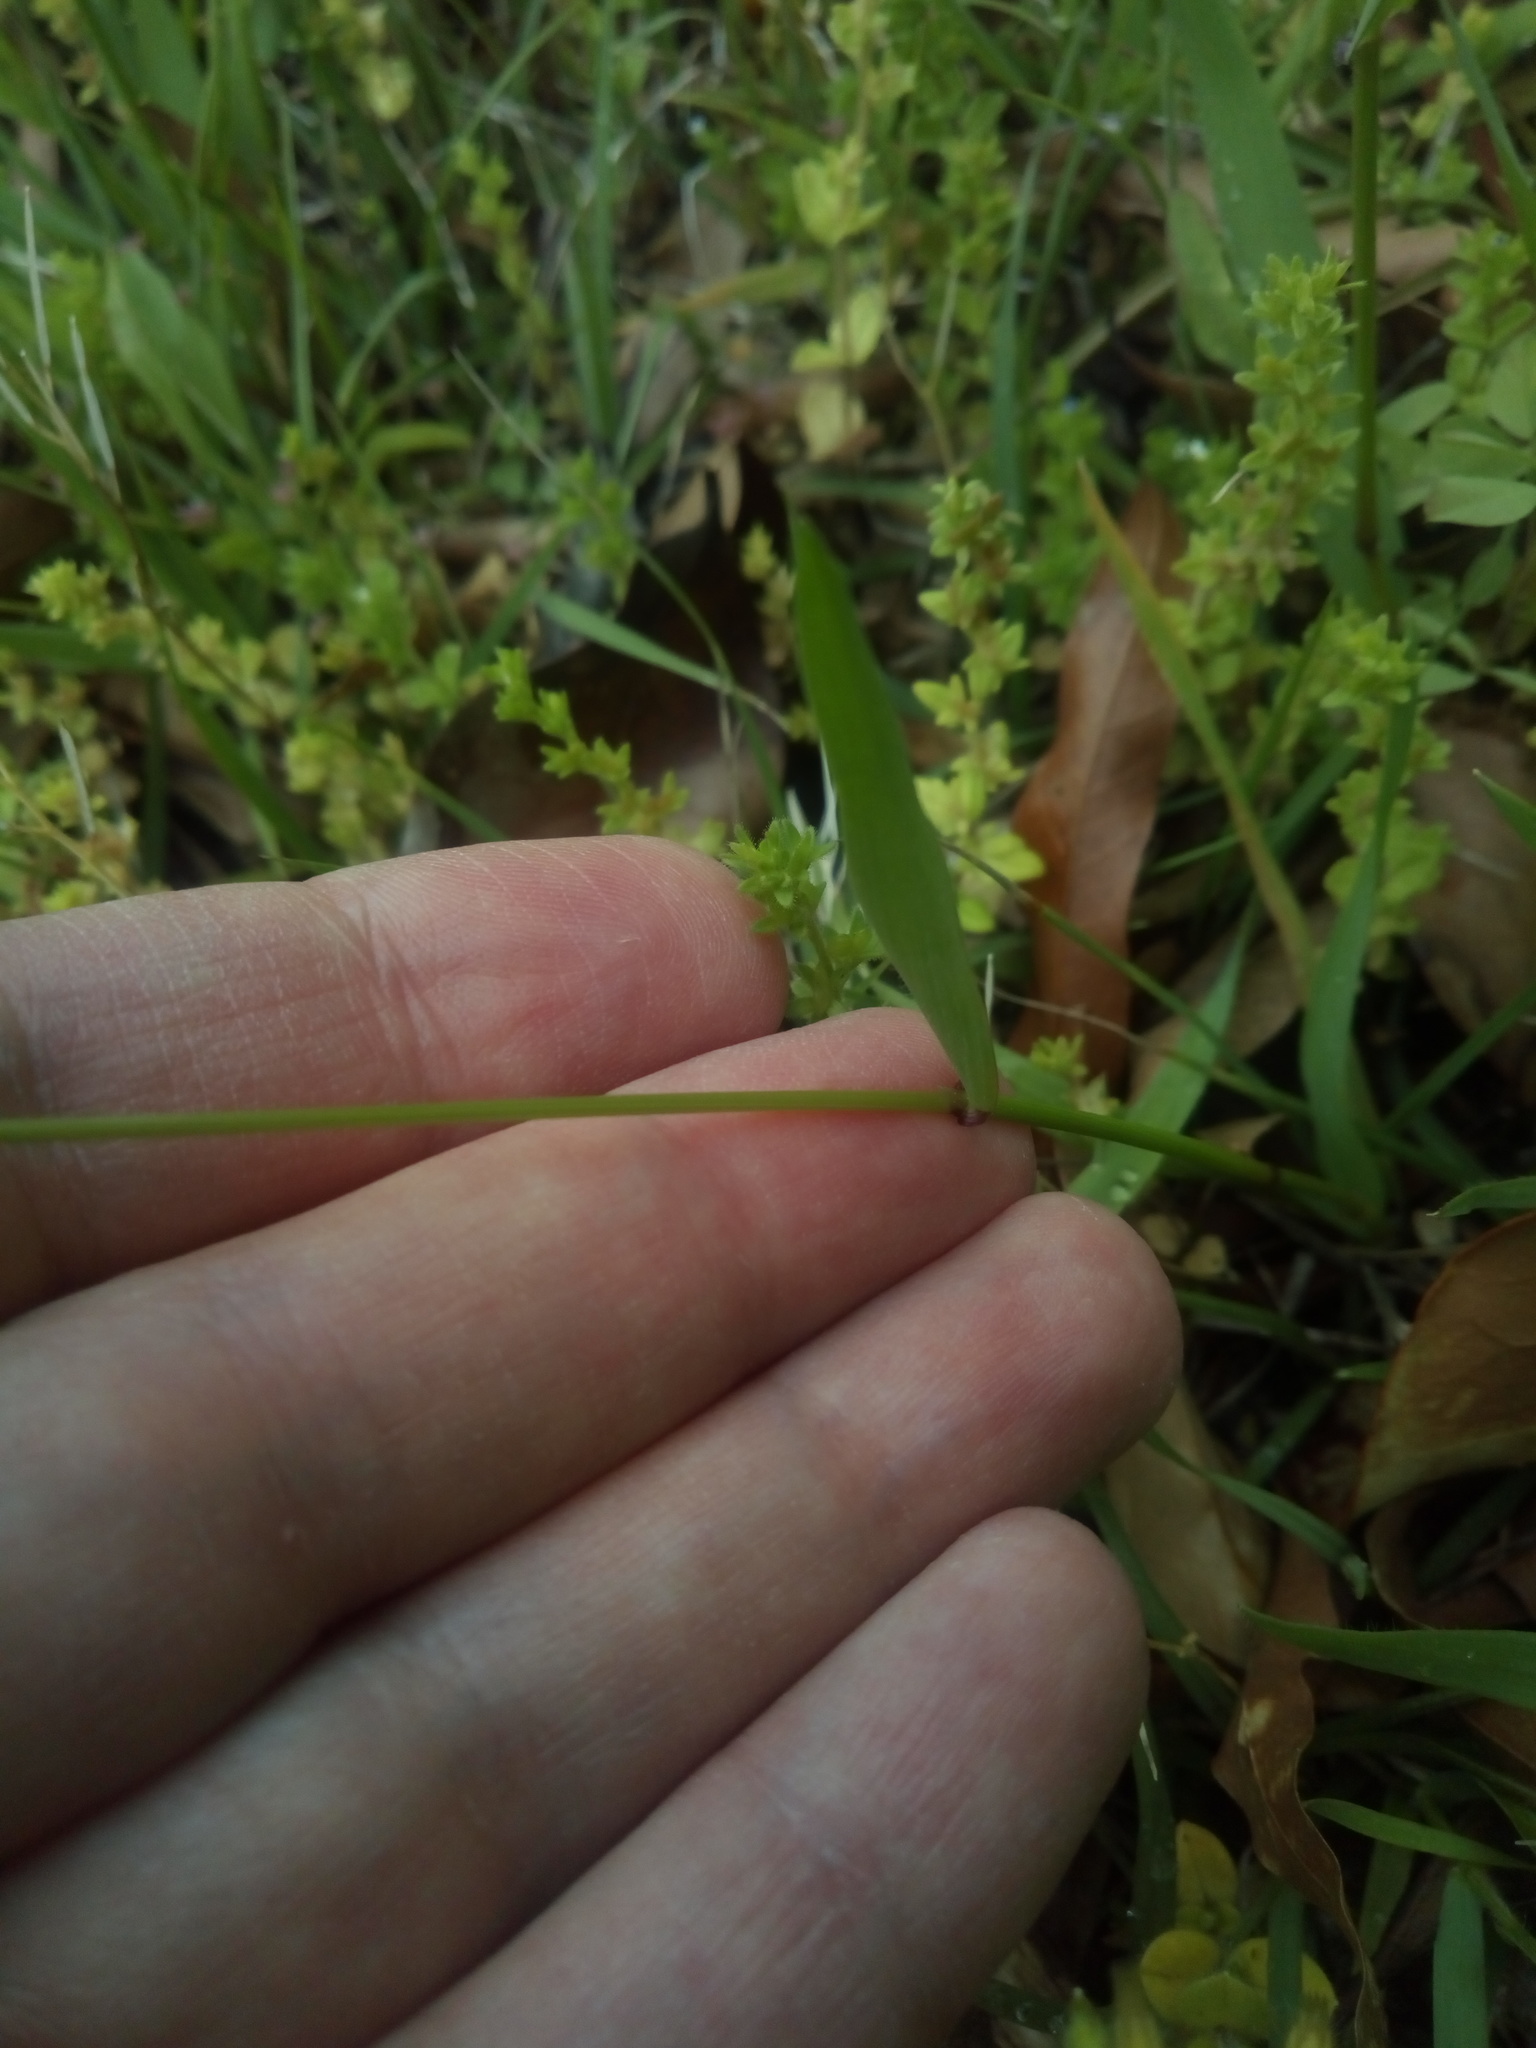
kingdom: Plantae
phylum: Tracheophyta
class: Liliopsida
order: Poales
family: Poaceae
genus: Anthoxanthum
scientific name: Anthoxanthum odoratum
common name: Sweet vernalgrass
